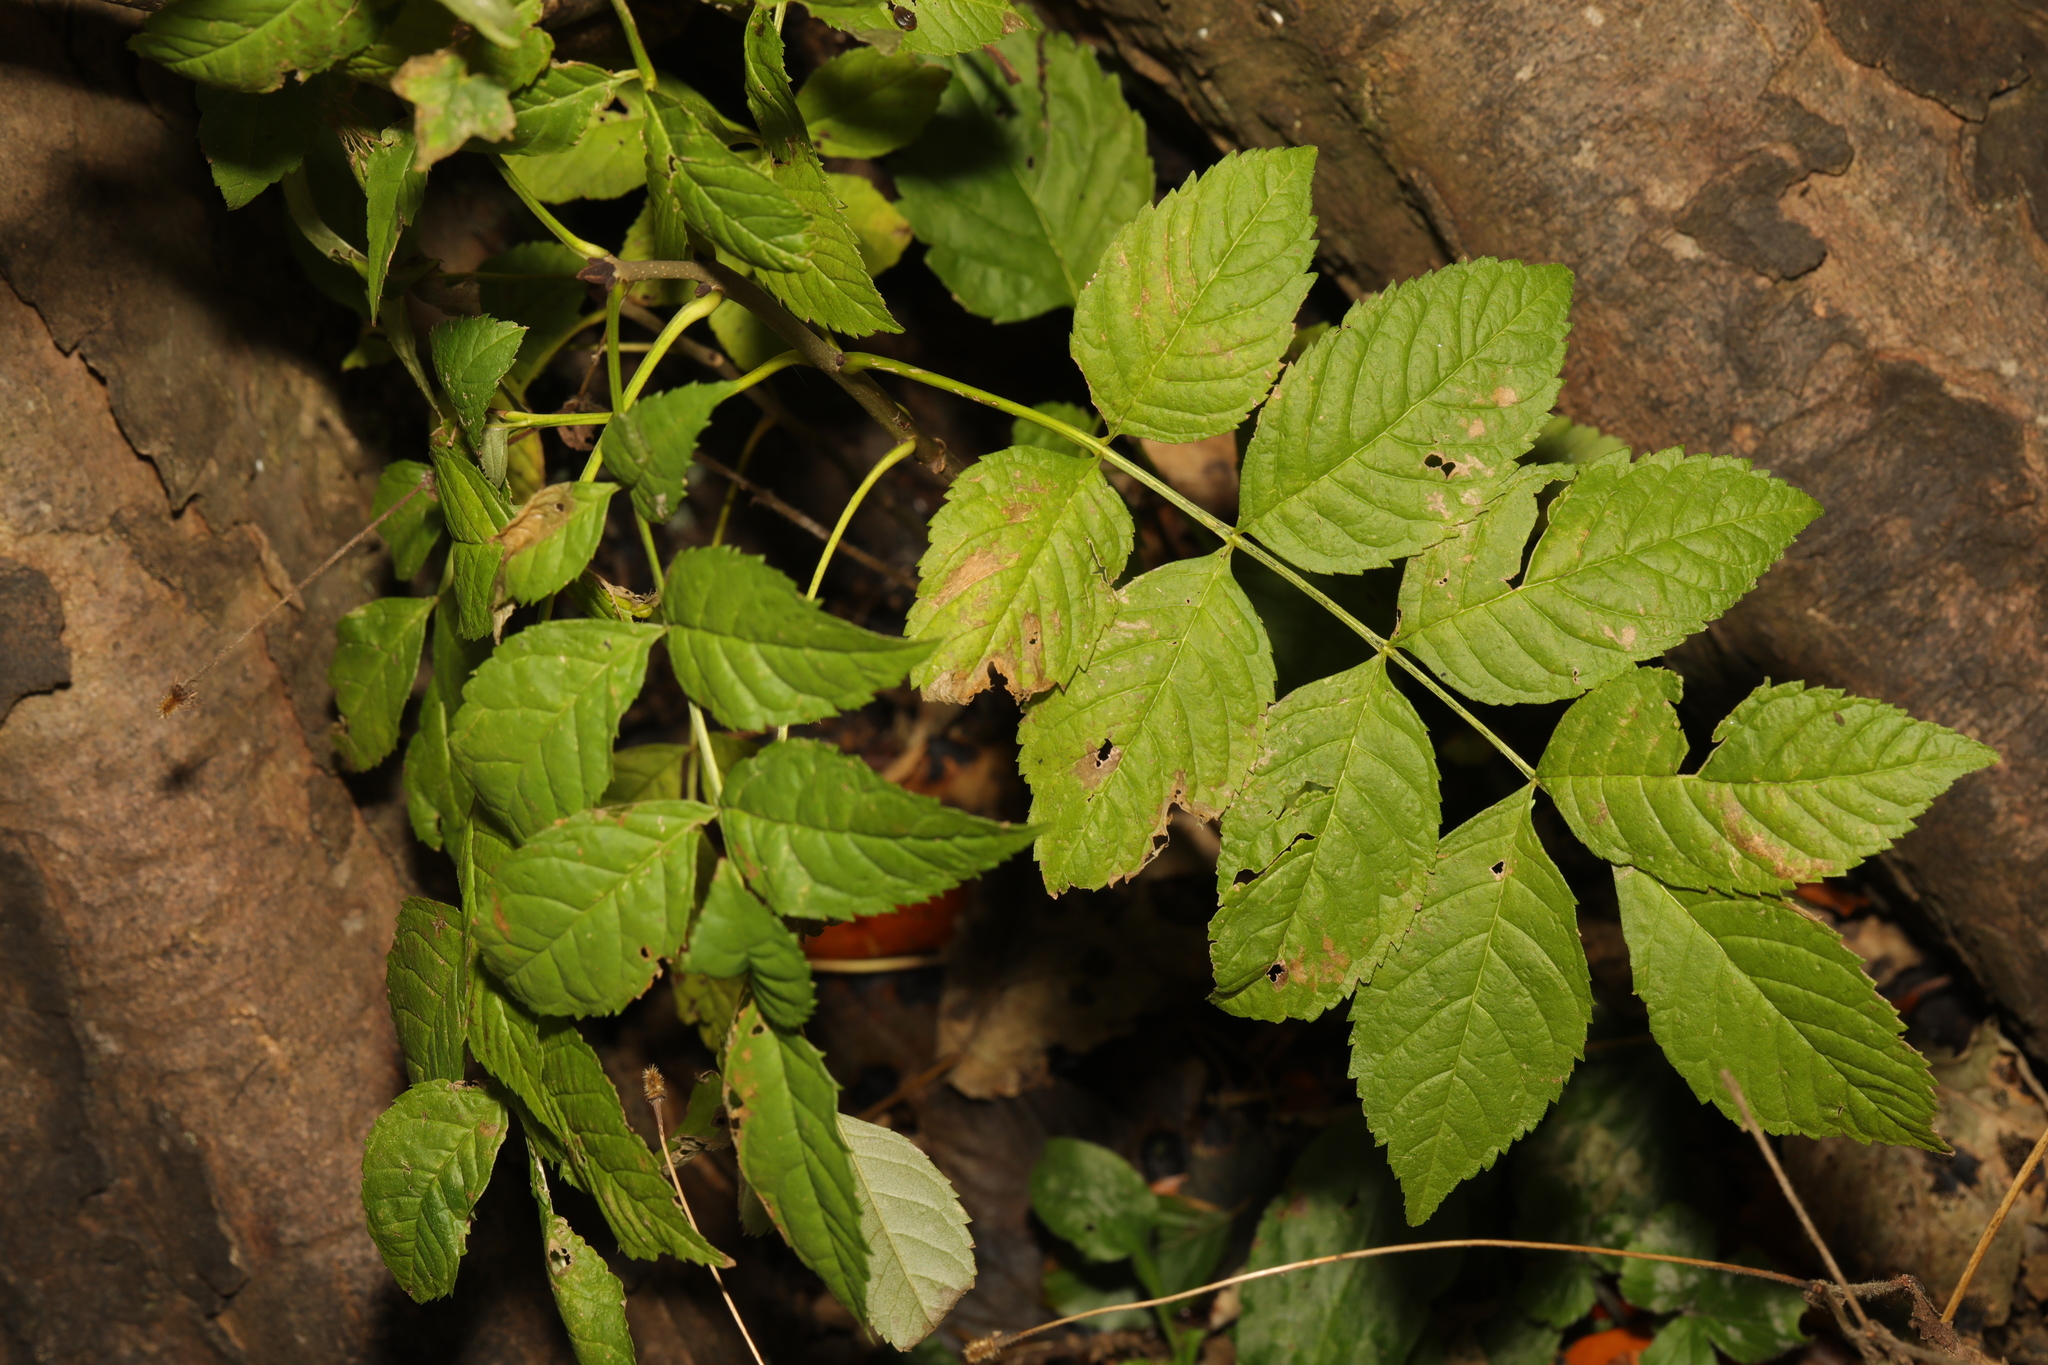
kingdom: Plantae
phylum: Tracheophyta
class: Magnoliopsida
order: Lamiales
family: Oleaceae
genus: Fraxinus
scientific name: Fraxinus excelsior
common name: European ash
